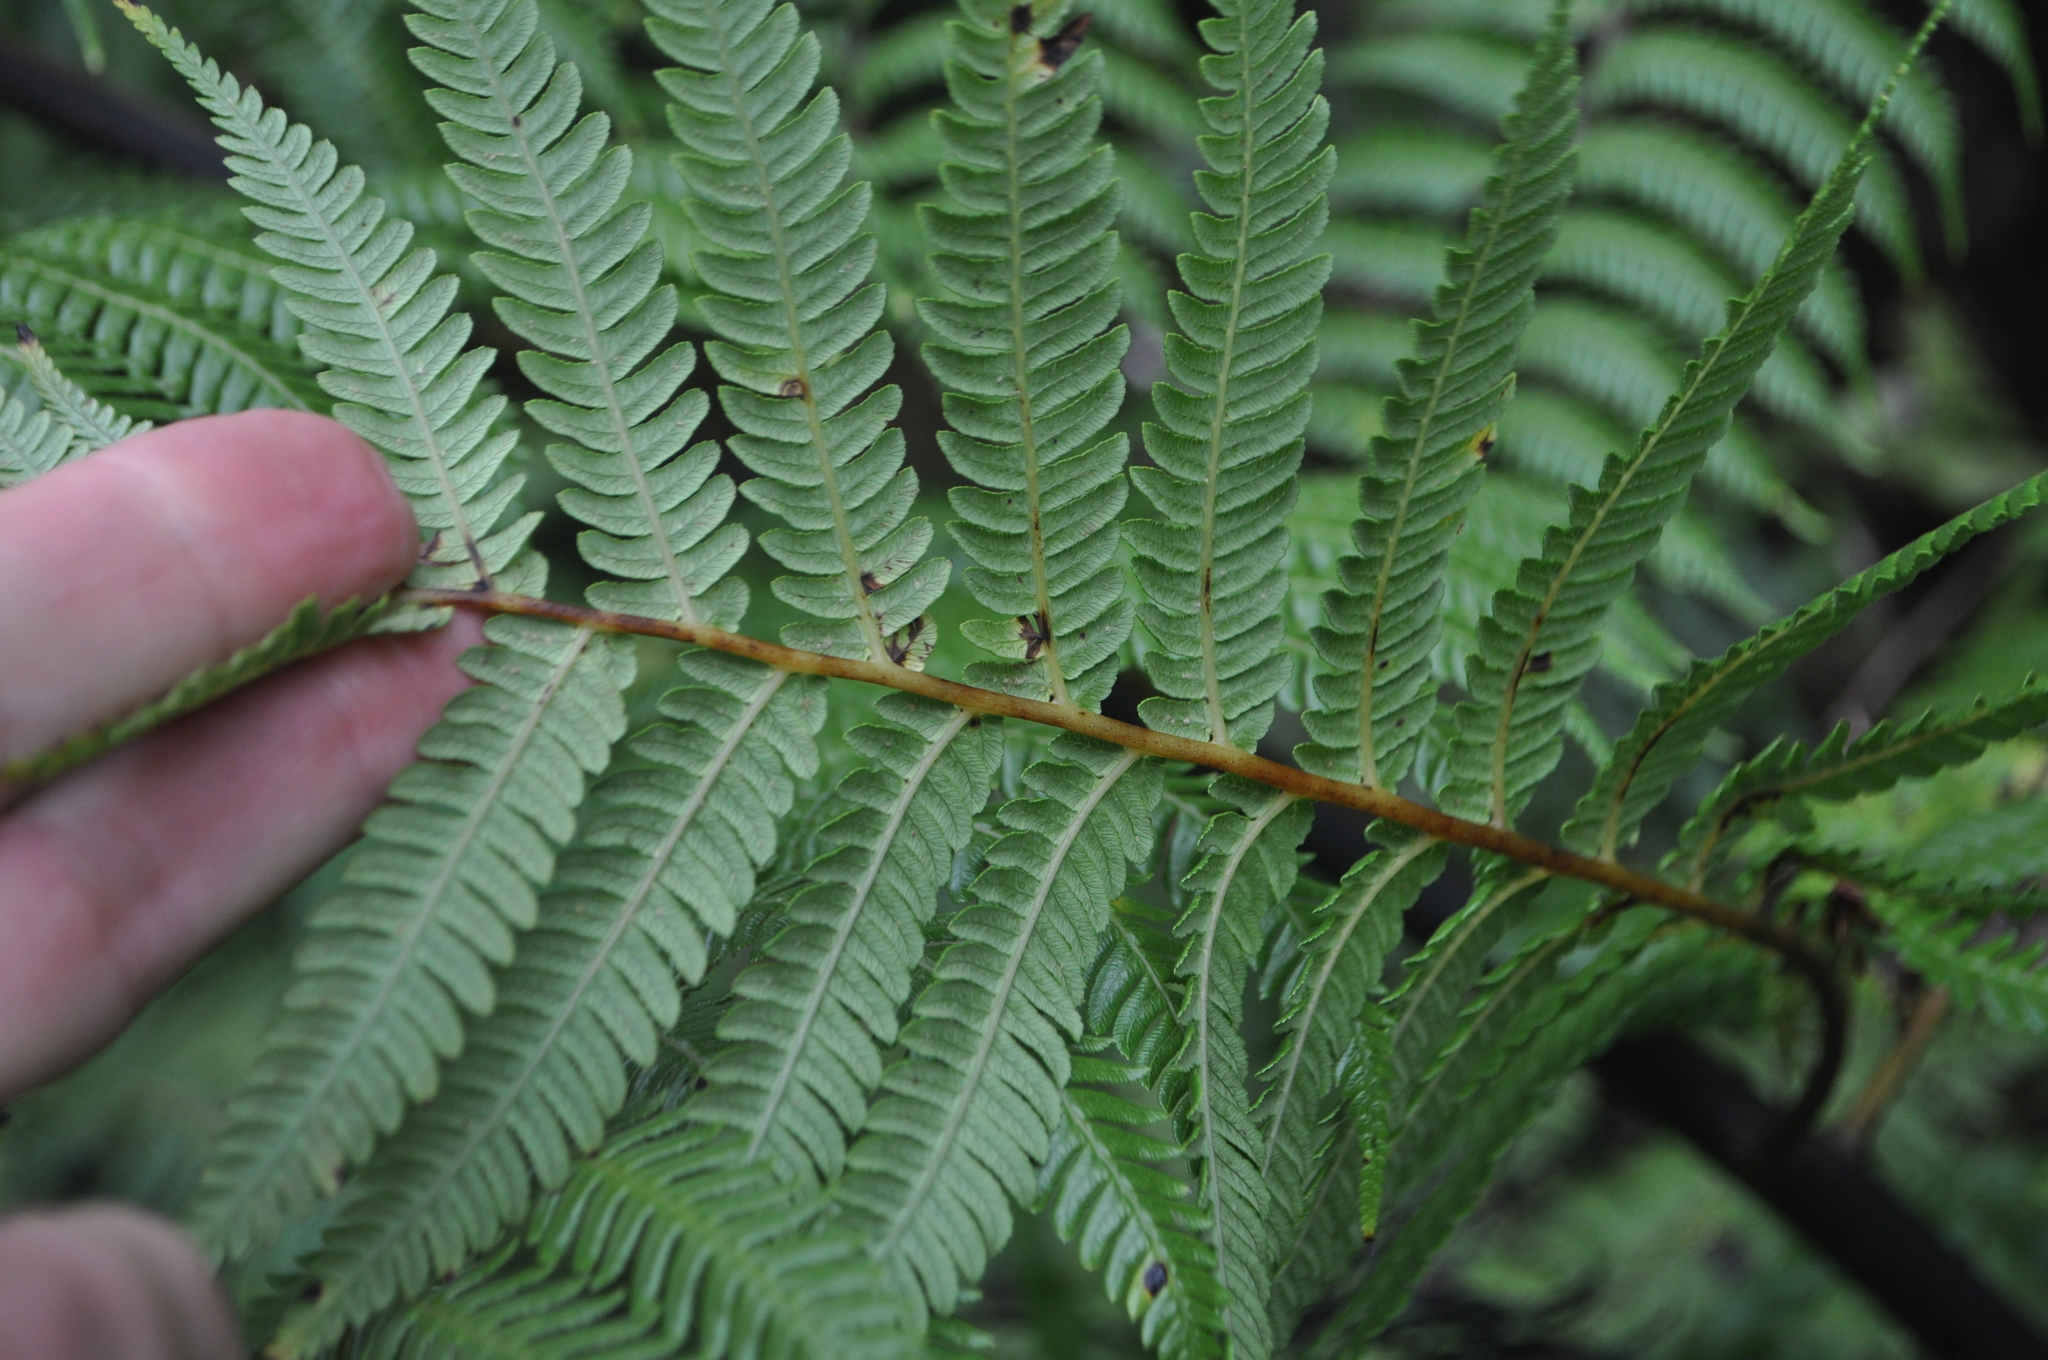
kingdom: Plantae
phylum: Tracheophyta
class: Polypodiopsida
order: Cyatheales
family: Cyatheaceae
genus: Sphaeropteris
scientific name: Sphaeropteris medullaris
